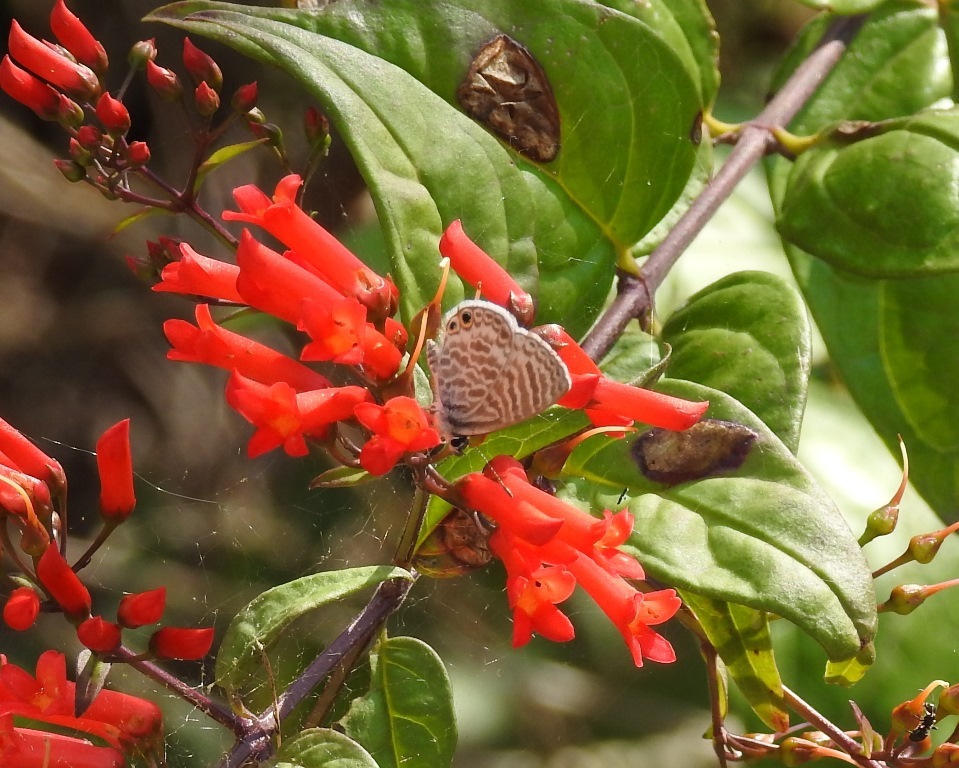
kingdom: Animalia
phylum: Arthropoda
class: Insecta
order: Lepidoptera
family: Lycaenidae
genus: Leptotes
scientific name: Leptotes marina
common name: Marine blue
